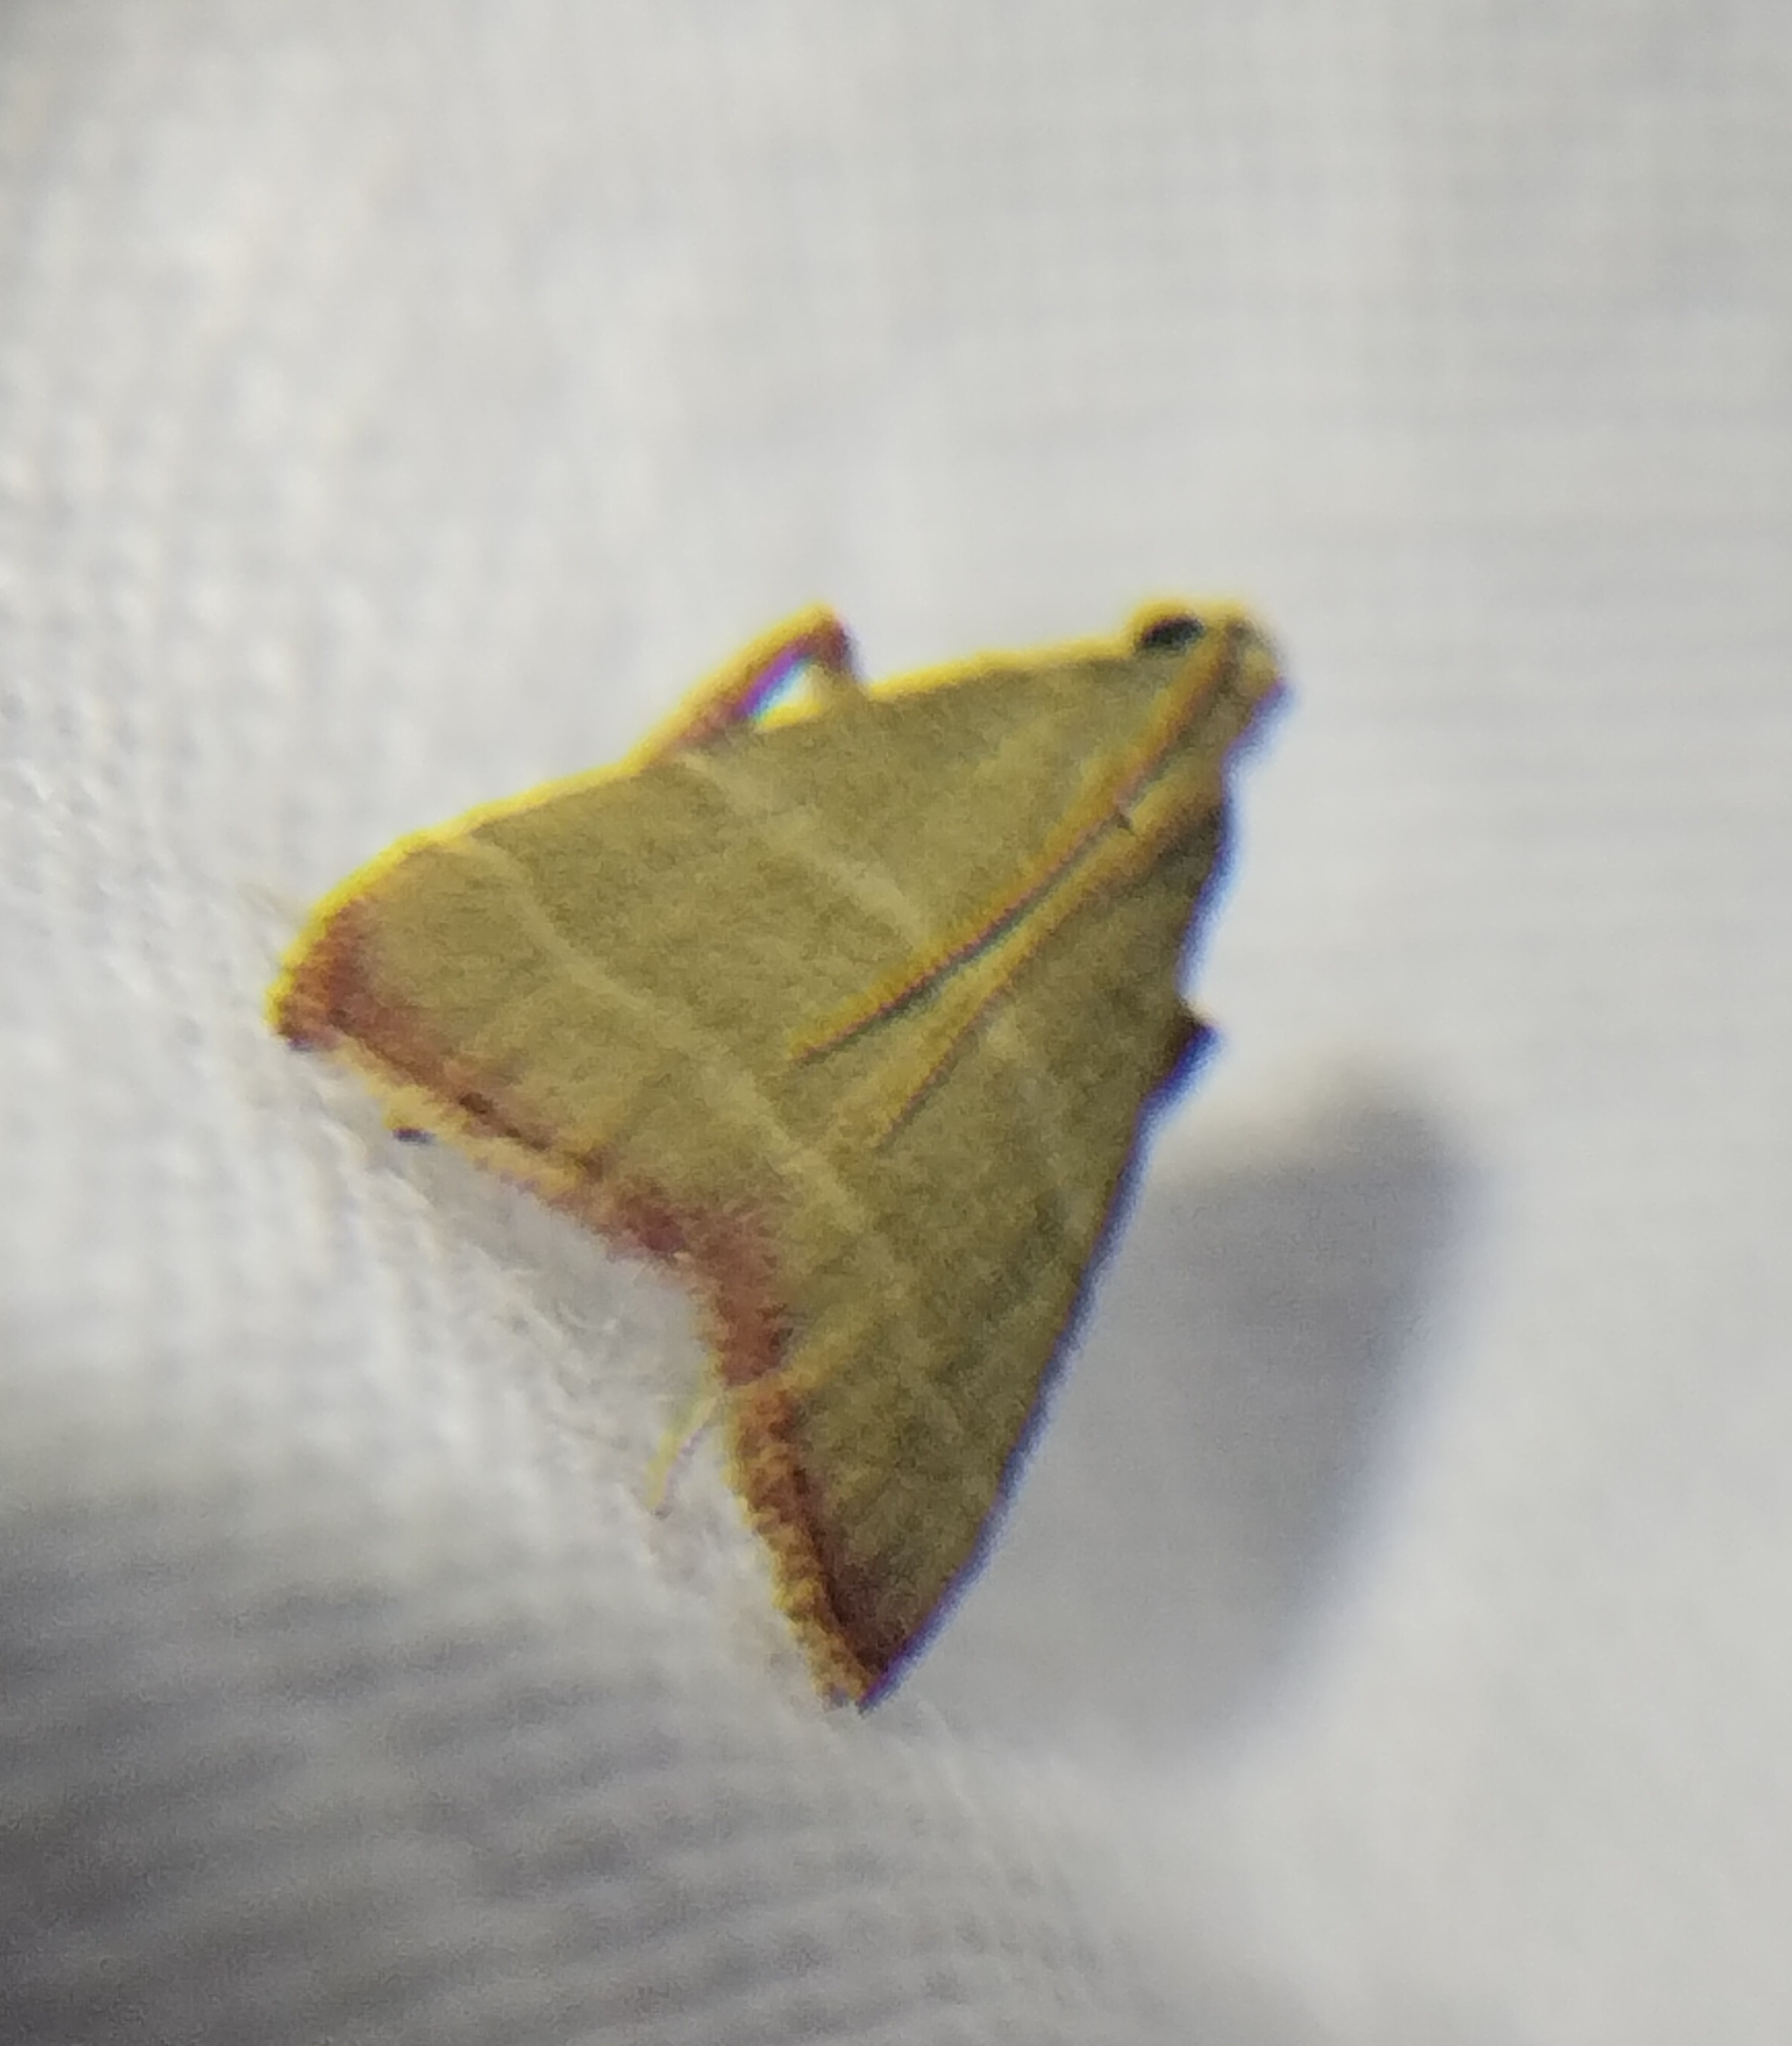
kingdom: Animalia
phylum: Arthropoda
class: Insecta
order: Lepidoptera
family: Pyralidae
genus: Arta
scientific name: Arta olivalis
